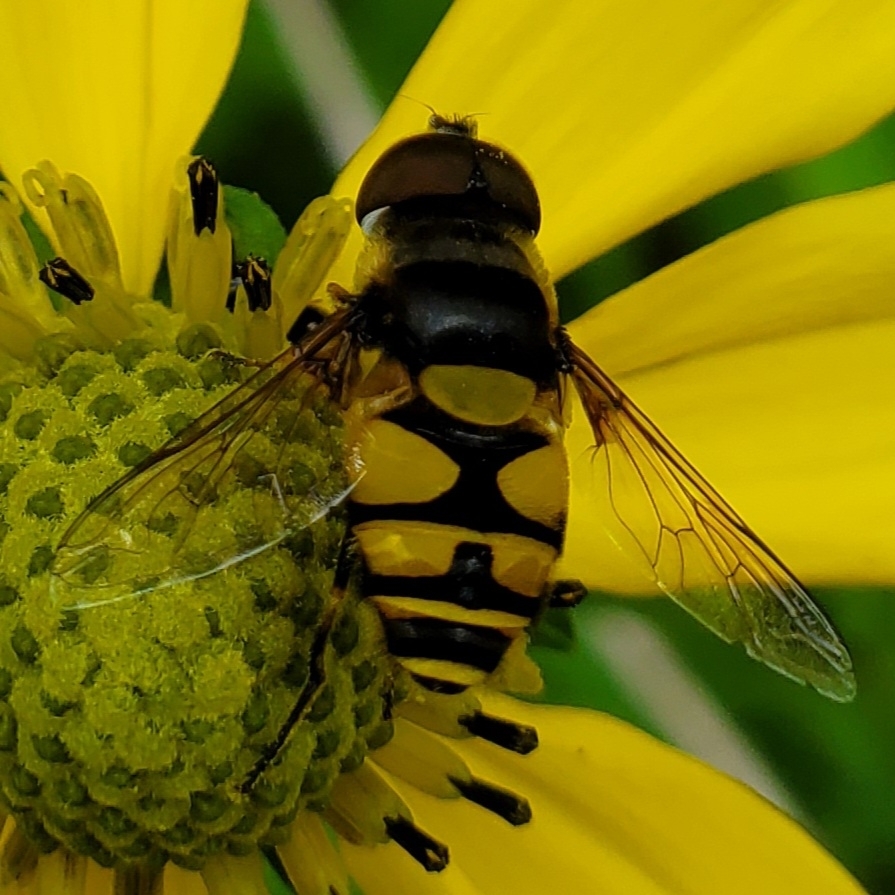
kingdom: Animalia
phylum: Arthropoda
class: Insecta
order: Diptera
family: Syrphidae
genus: Eristalis
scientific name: Eristalis transversa
